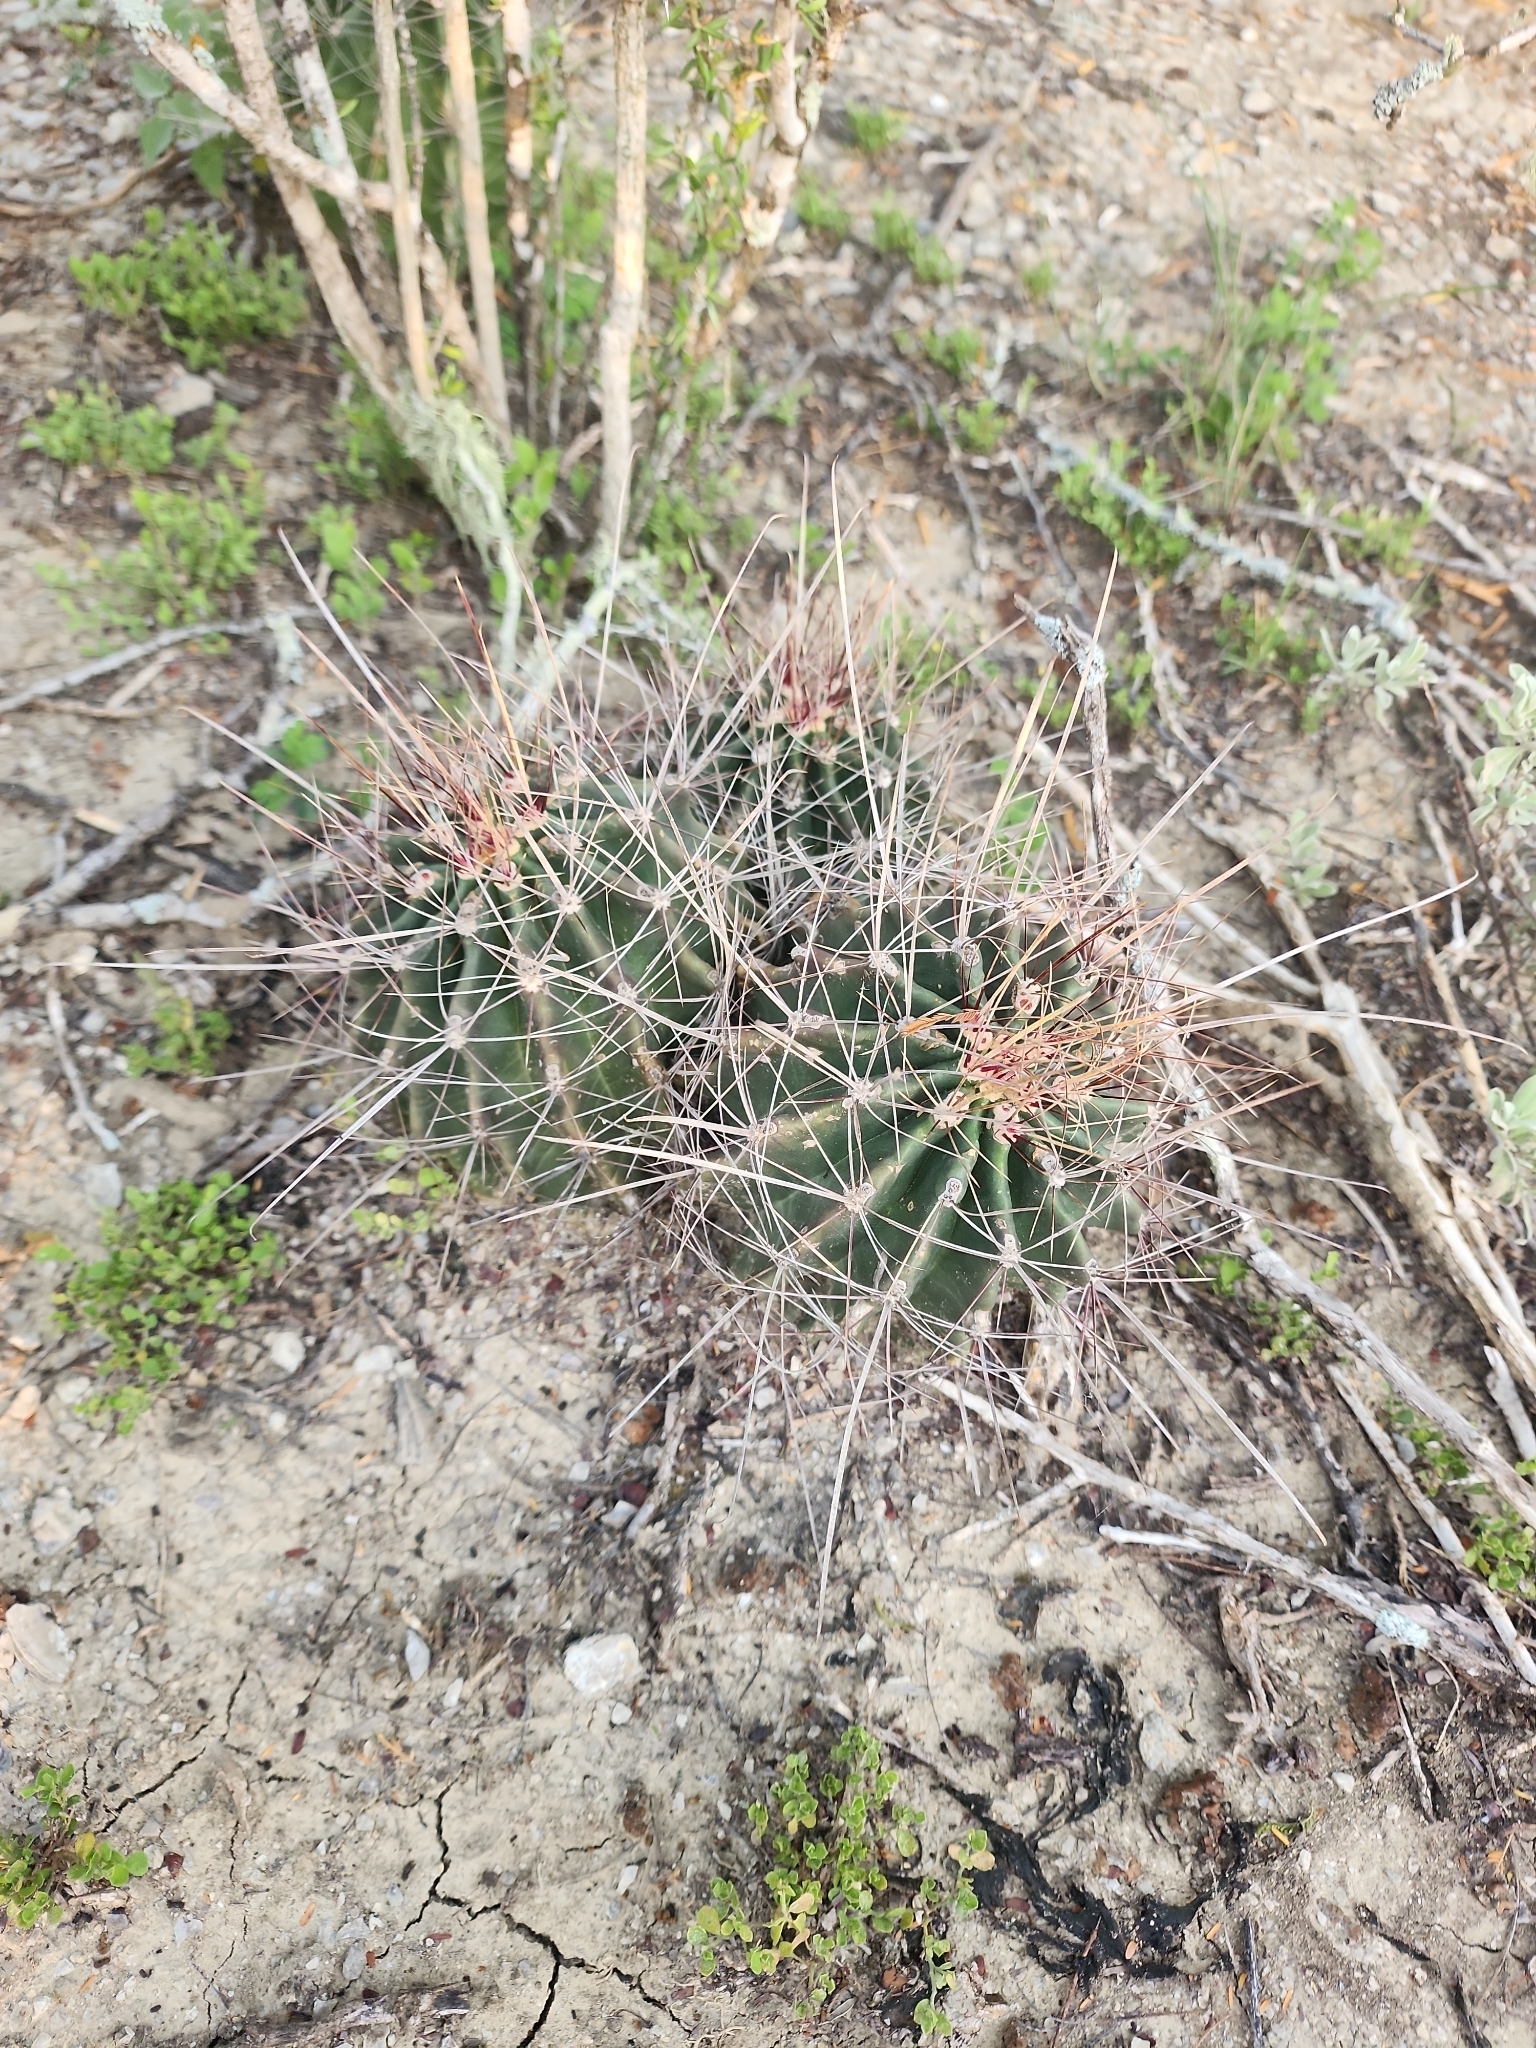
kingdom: Plantae
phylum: Tracheophyta
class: Magnoliopsida
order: Caryophyllales
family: Cactaceae
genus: Bisnaga
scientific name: Bisnaga hamatacantha
